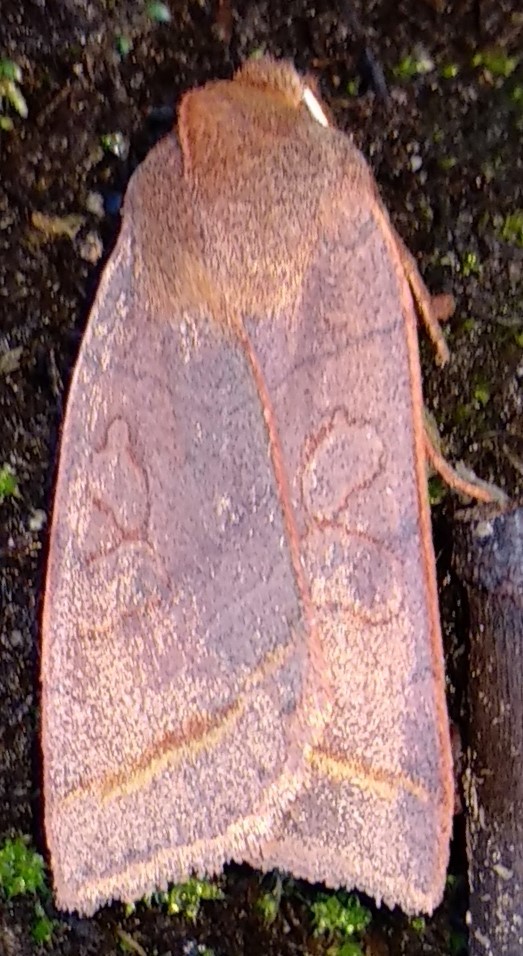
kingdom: Animalia
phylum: Arthropoda
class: Insecta
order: Lepidoptera
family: Noctuidae
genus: Epiglaea
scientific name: Epiglaea apiata
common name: Pointed sallow
